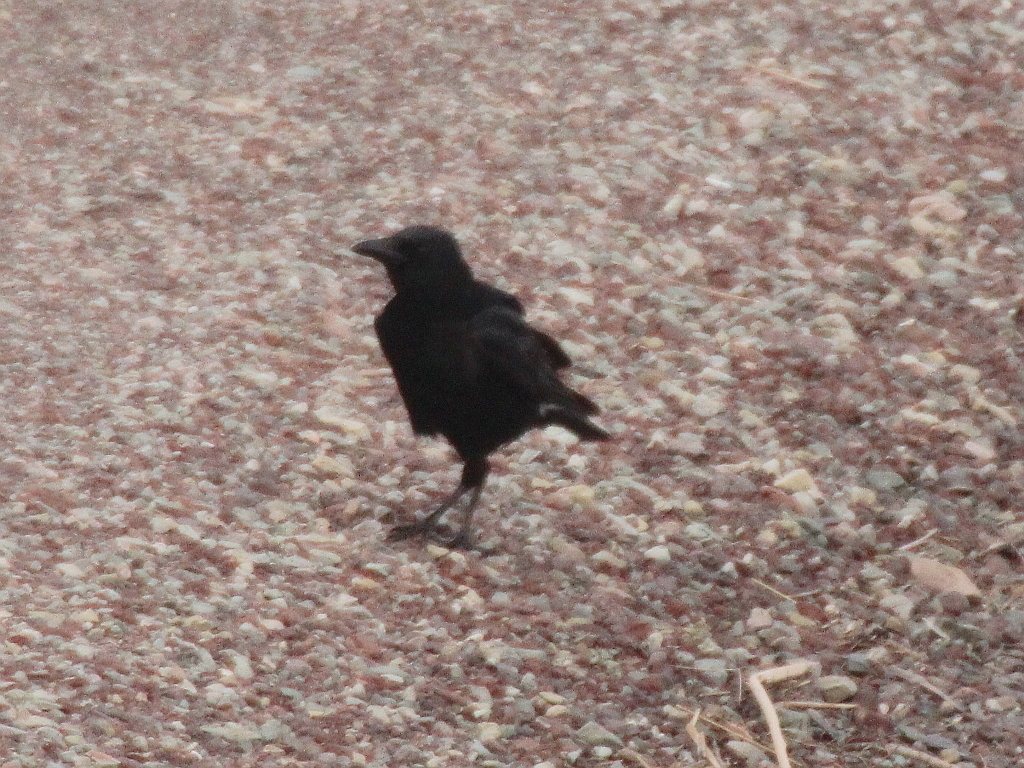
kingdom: Animalia
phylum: Chordata
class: Aves
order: Passeriformes
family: Corvidae
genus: Corvus
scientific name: Corvus corone
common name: Carrion crow
